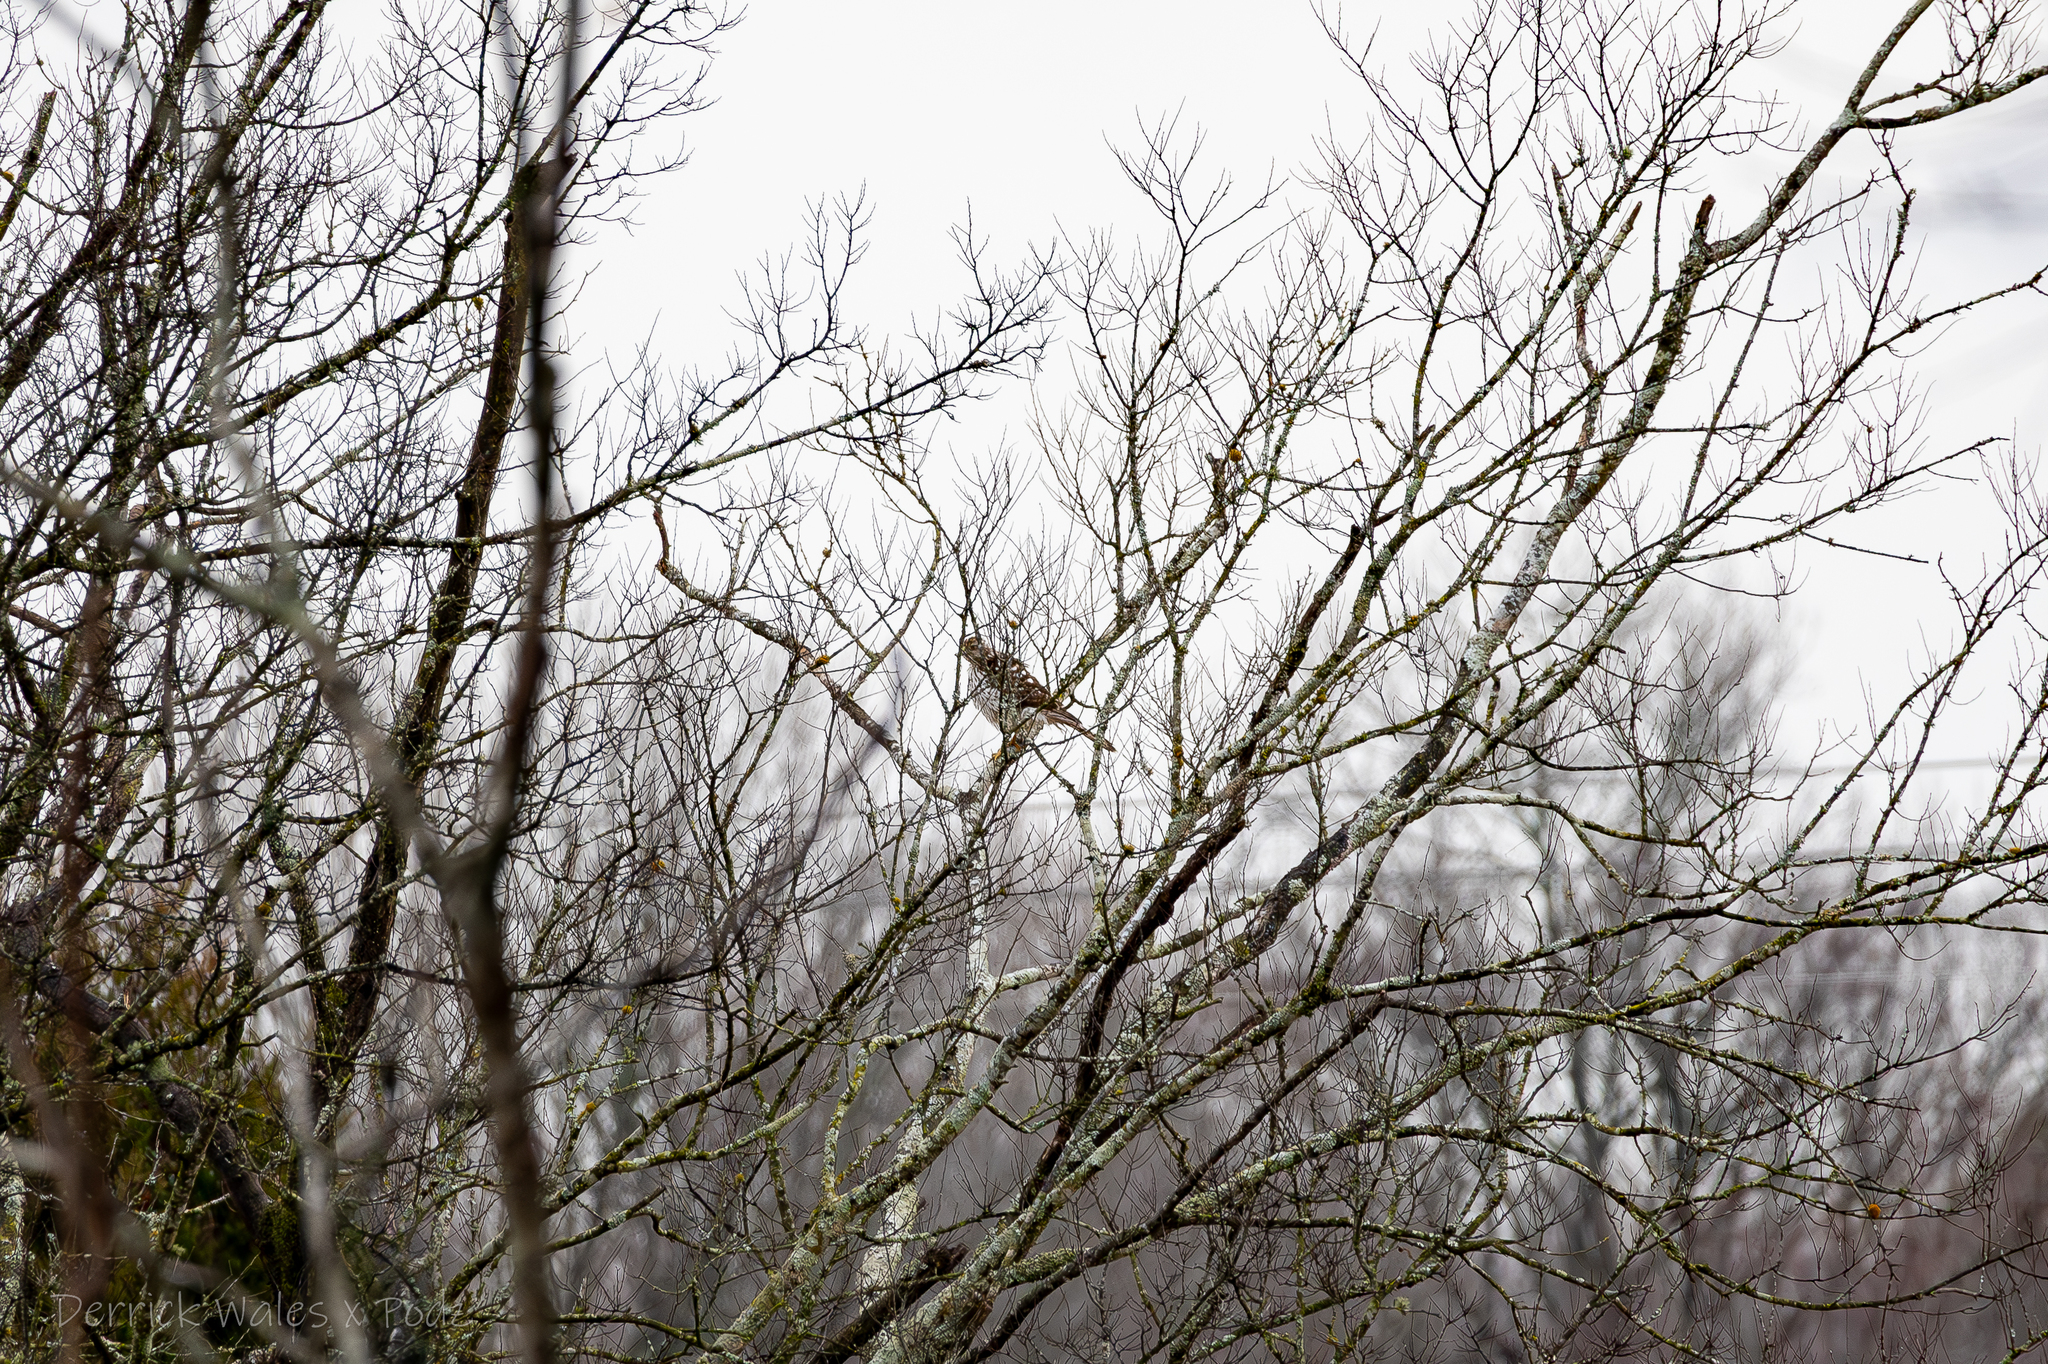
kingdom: Animalia
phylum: Chordata
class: Aves
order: Accipitriformes
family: Accipitridae
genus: Accipiter
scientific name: Accipiter cooperii
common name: Cooper's hawk
